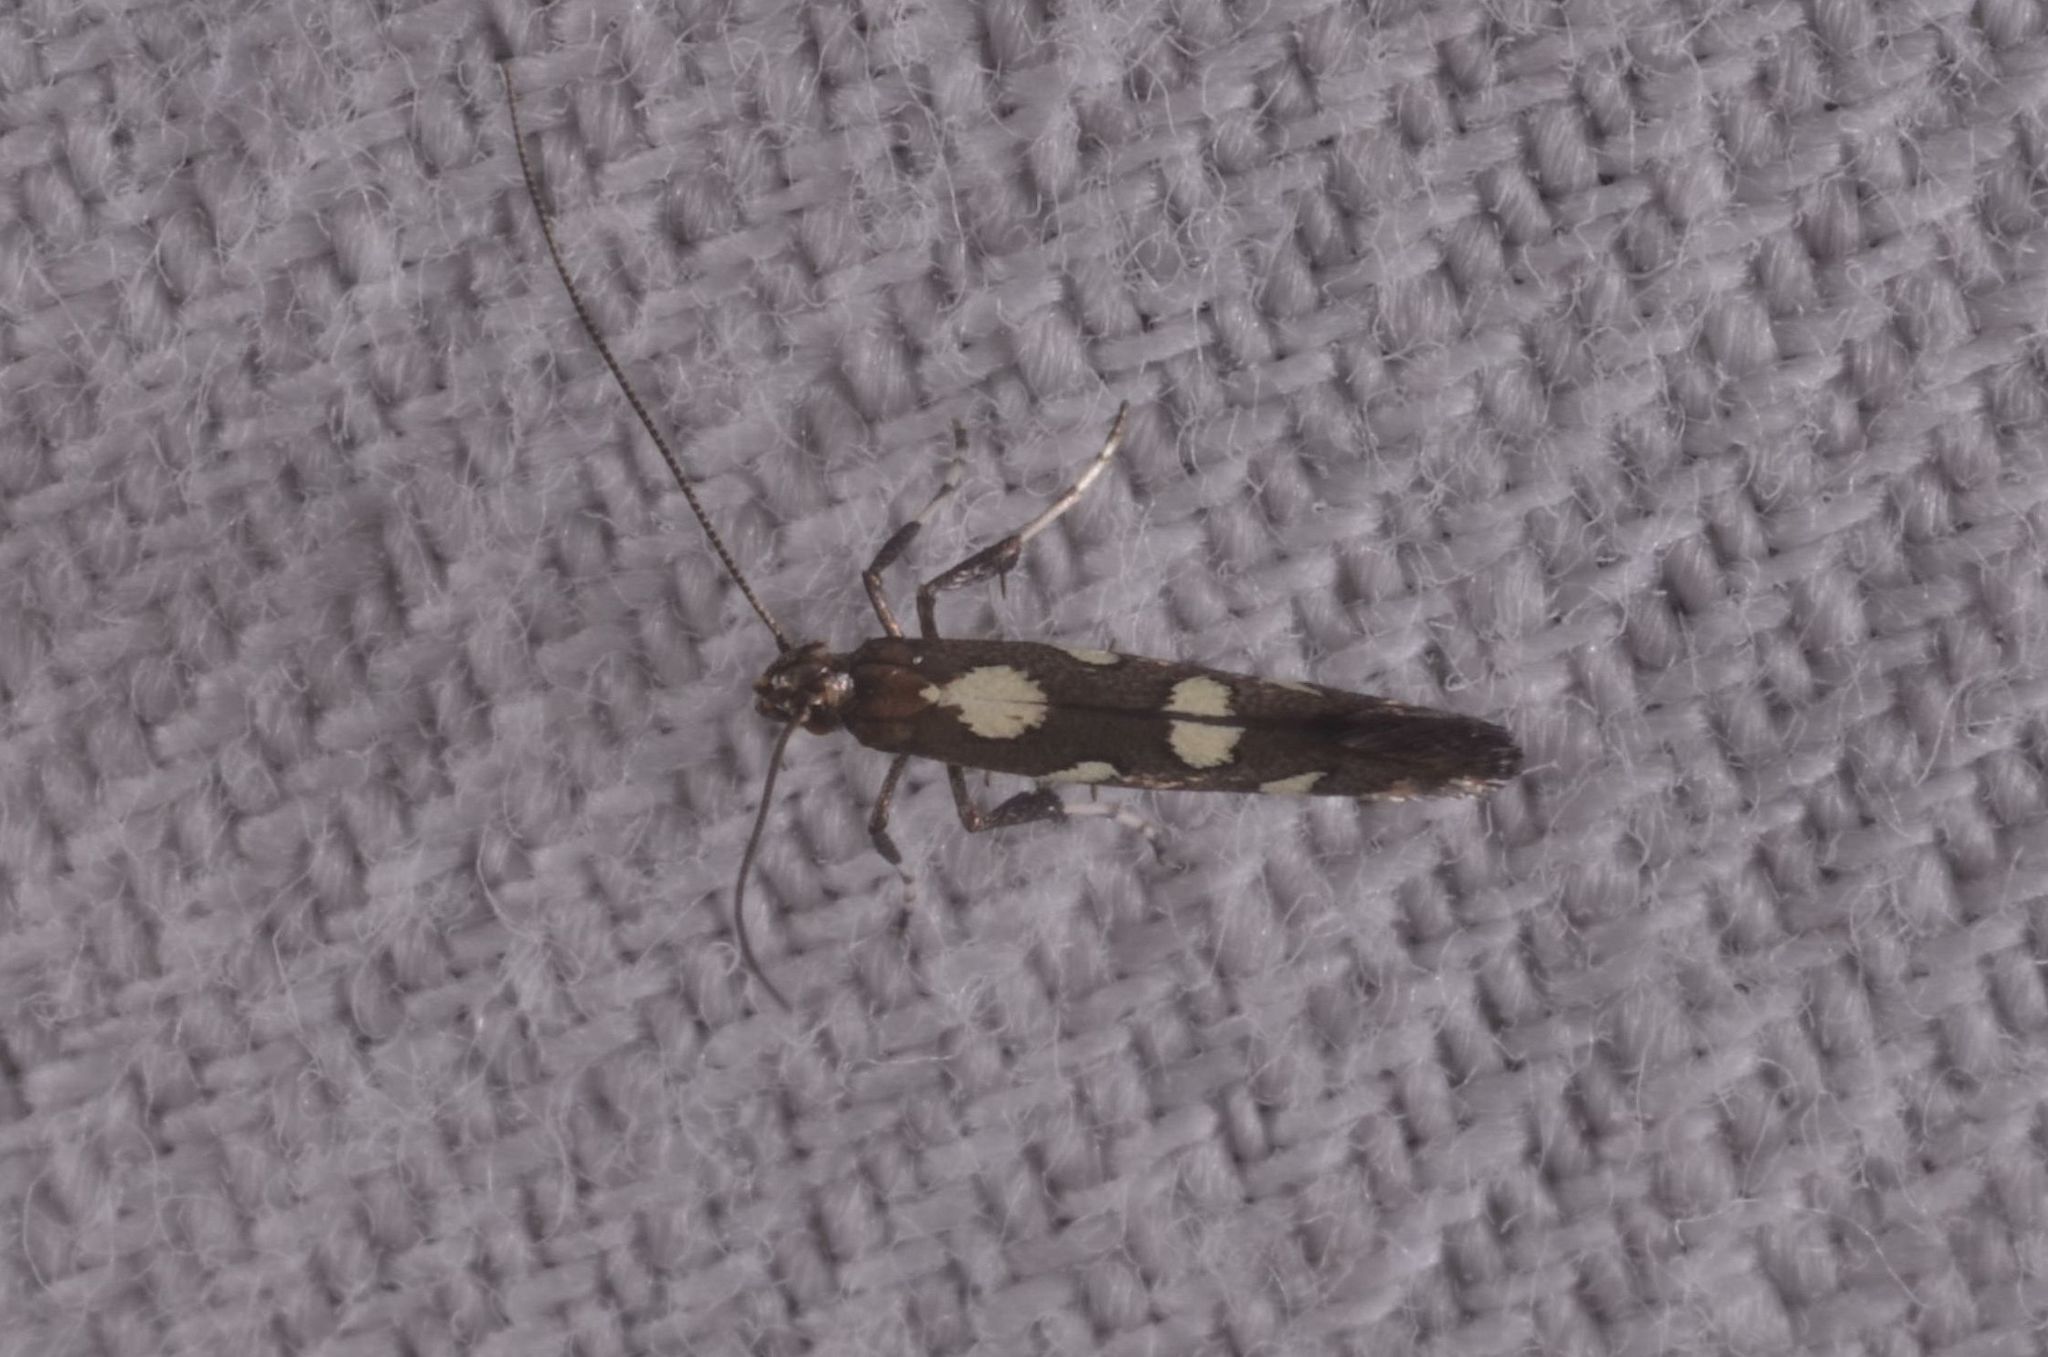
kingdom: Animalia
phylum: Arthropoda
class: Insecta
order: Lepidoptera
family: Gracillariidae
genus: Calybites
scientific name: Calybites phasianipennella
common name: Little slender
